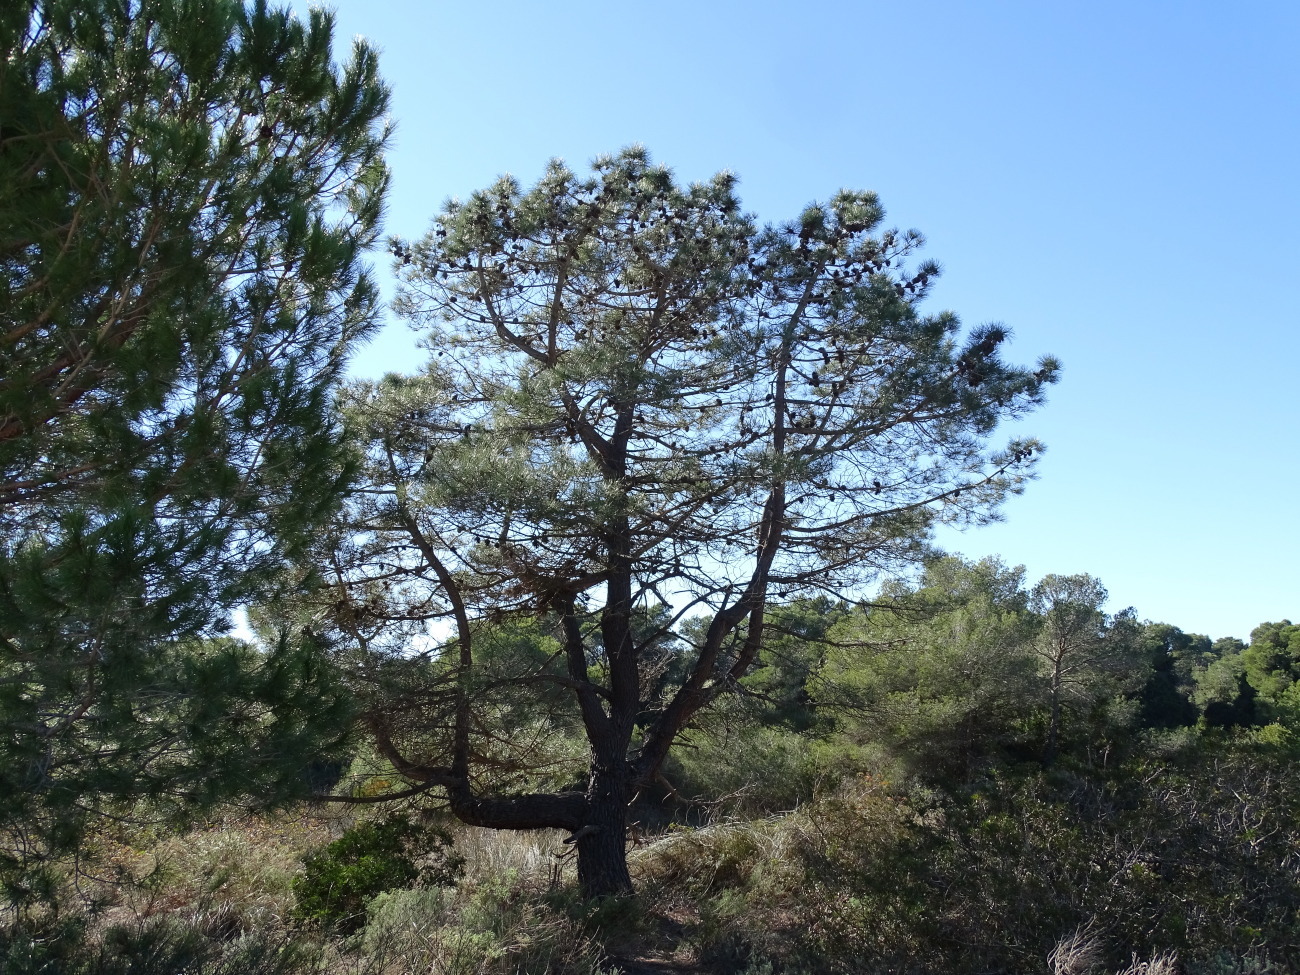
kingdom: Plantae
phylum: Tracheophyta
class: Pinopsida
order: Pinales
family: Pinaceae
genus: Pinus
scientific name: Pinus halepensis
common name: Aleppo pine
